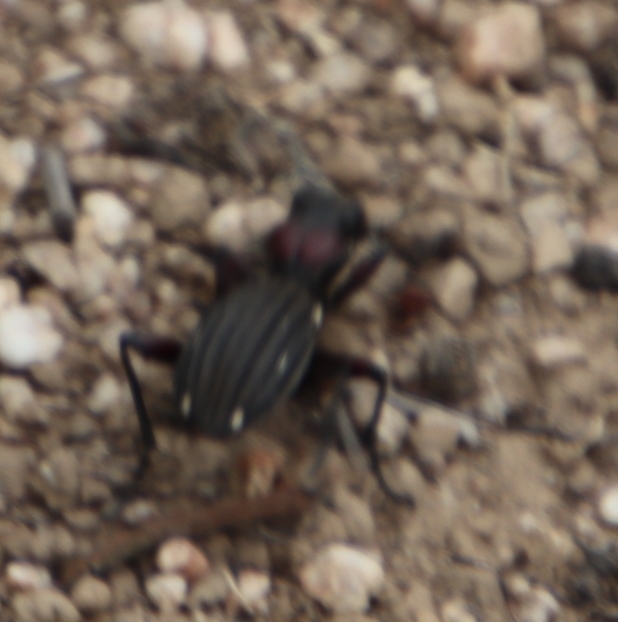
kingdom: Animalia
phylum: Arthropoda
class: Insecta
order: Coleoptera
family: Carabidae
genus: Anthia
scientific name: Anthia decemguttata
